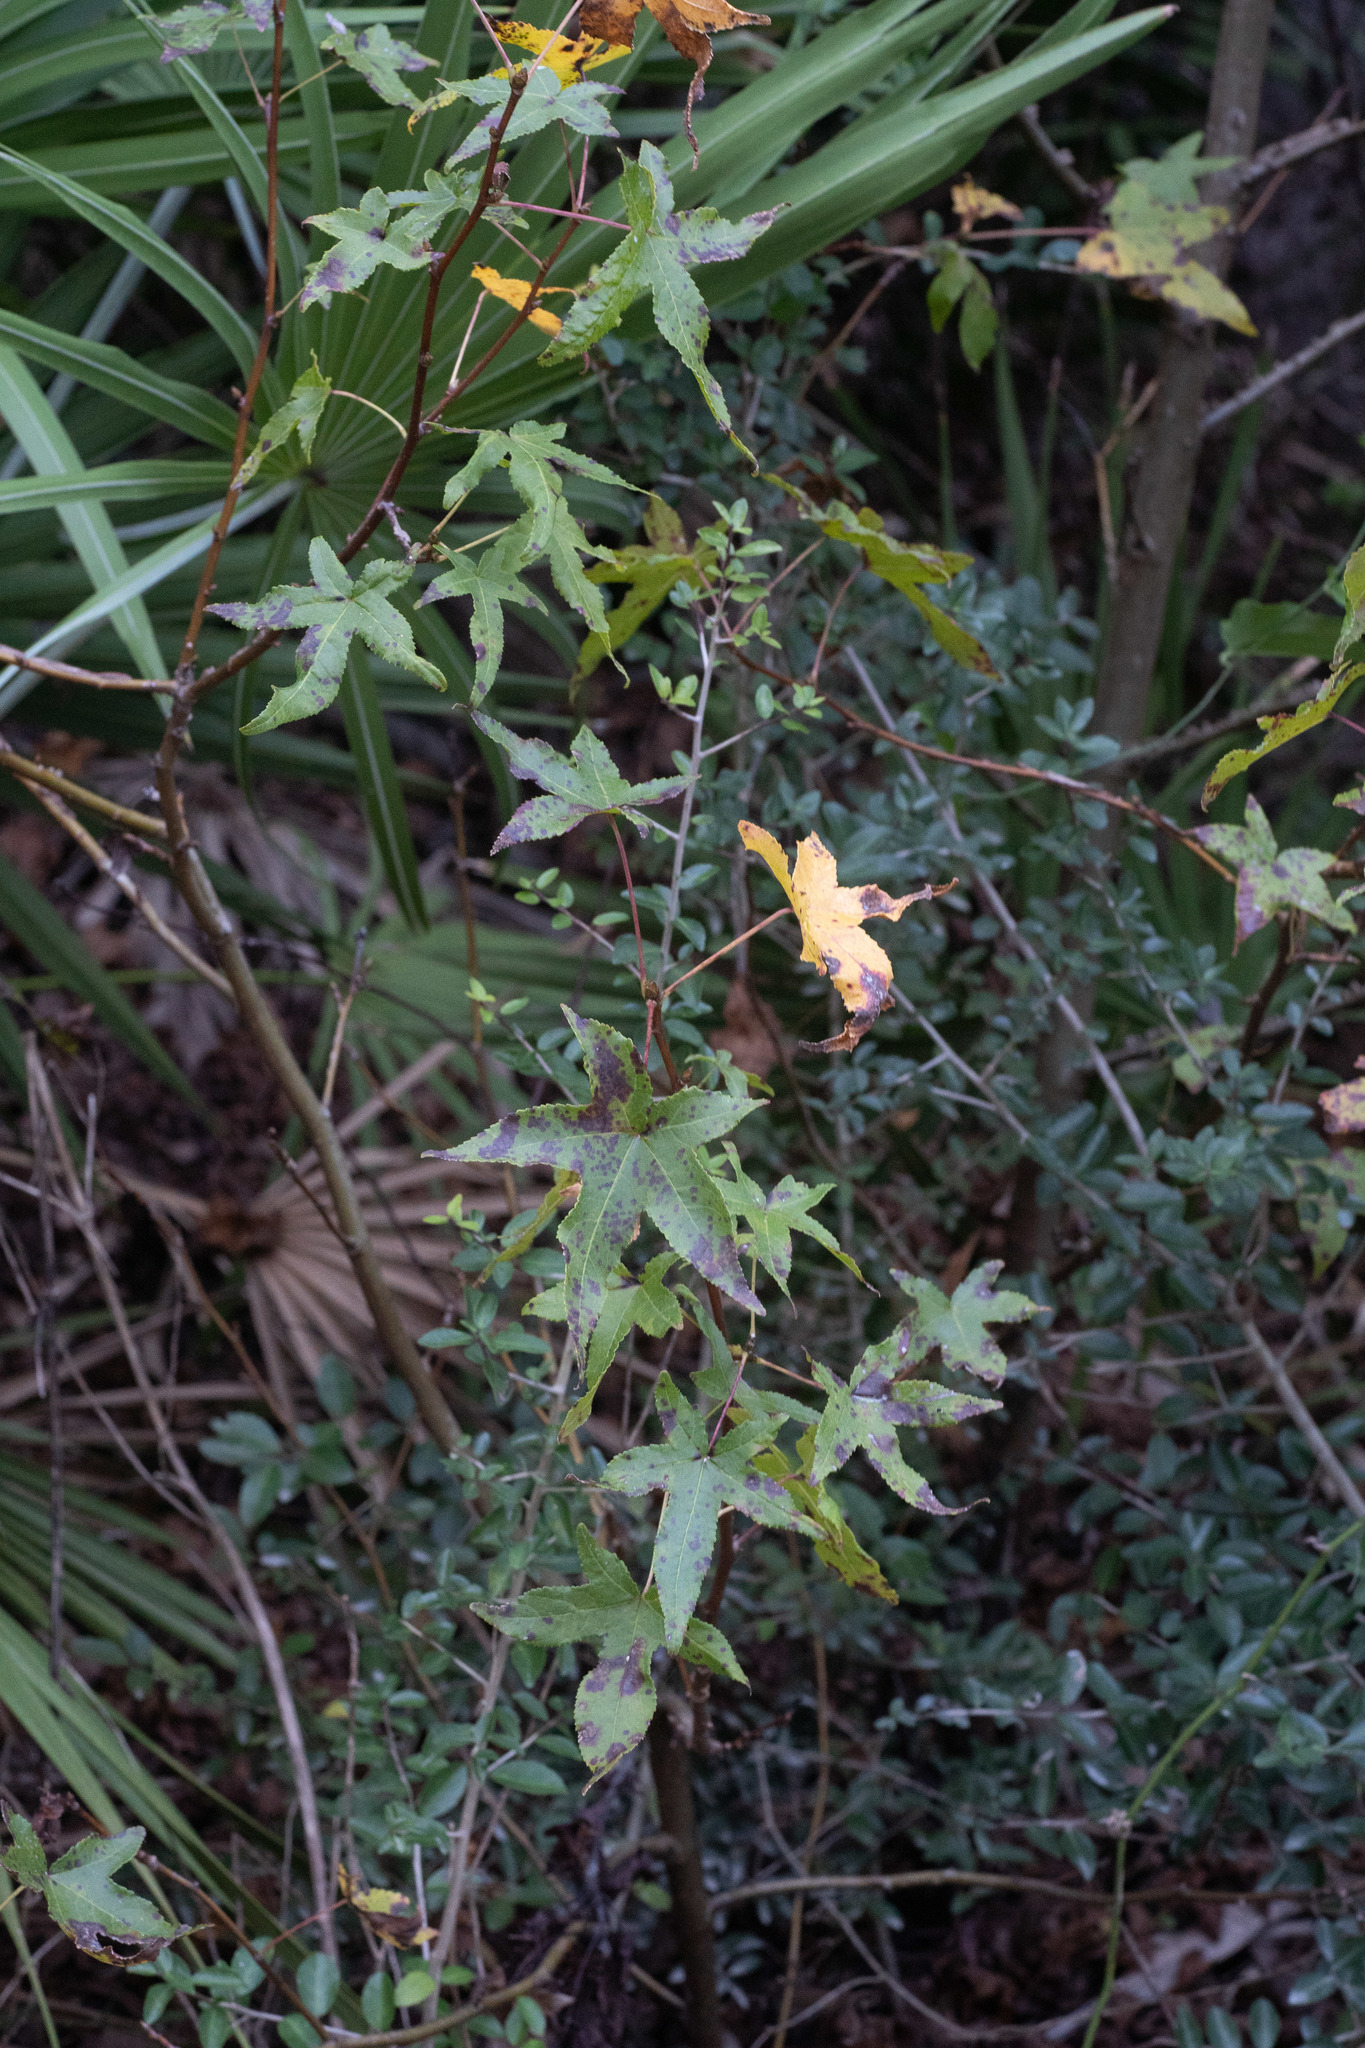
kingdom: Plantae
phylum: Tracheophyta
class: Magnoliopsida
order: Saxifragales
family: Altingiaceae
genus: Liquidambar
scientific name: Liquidambar styraciflua
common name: Sweet gum
